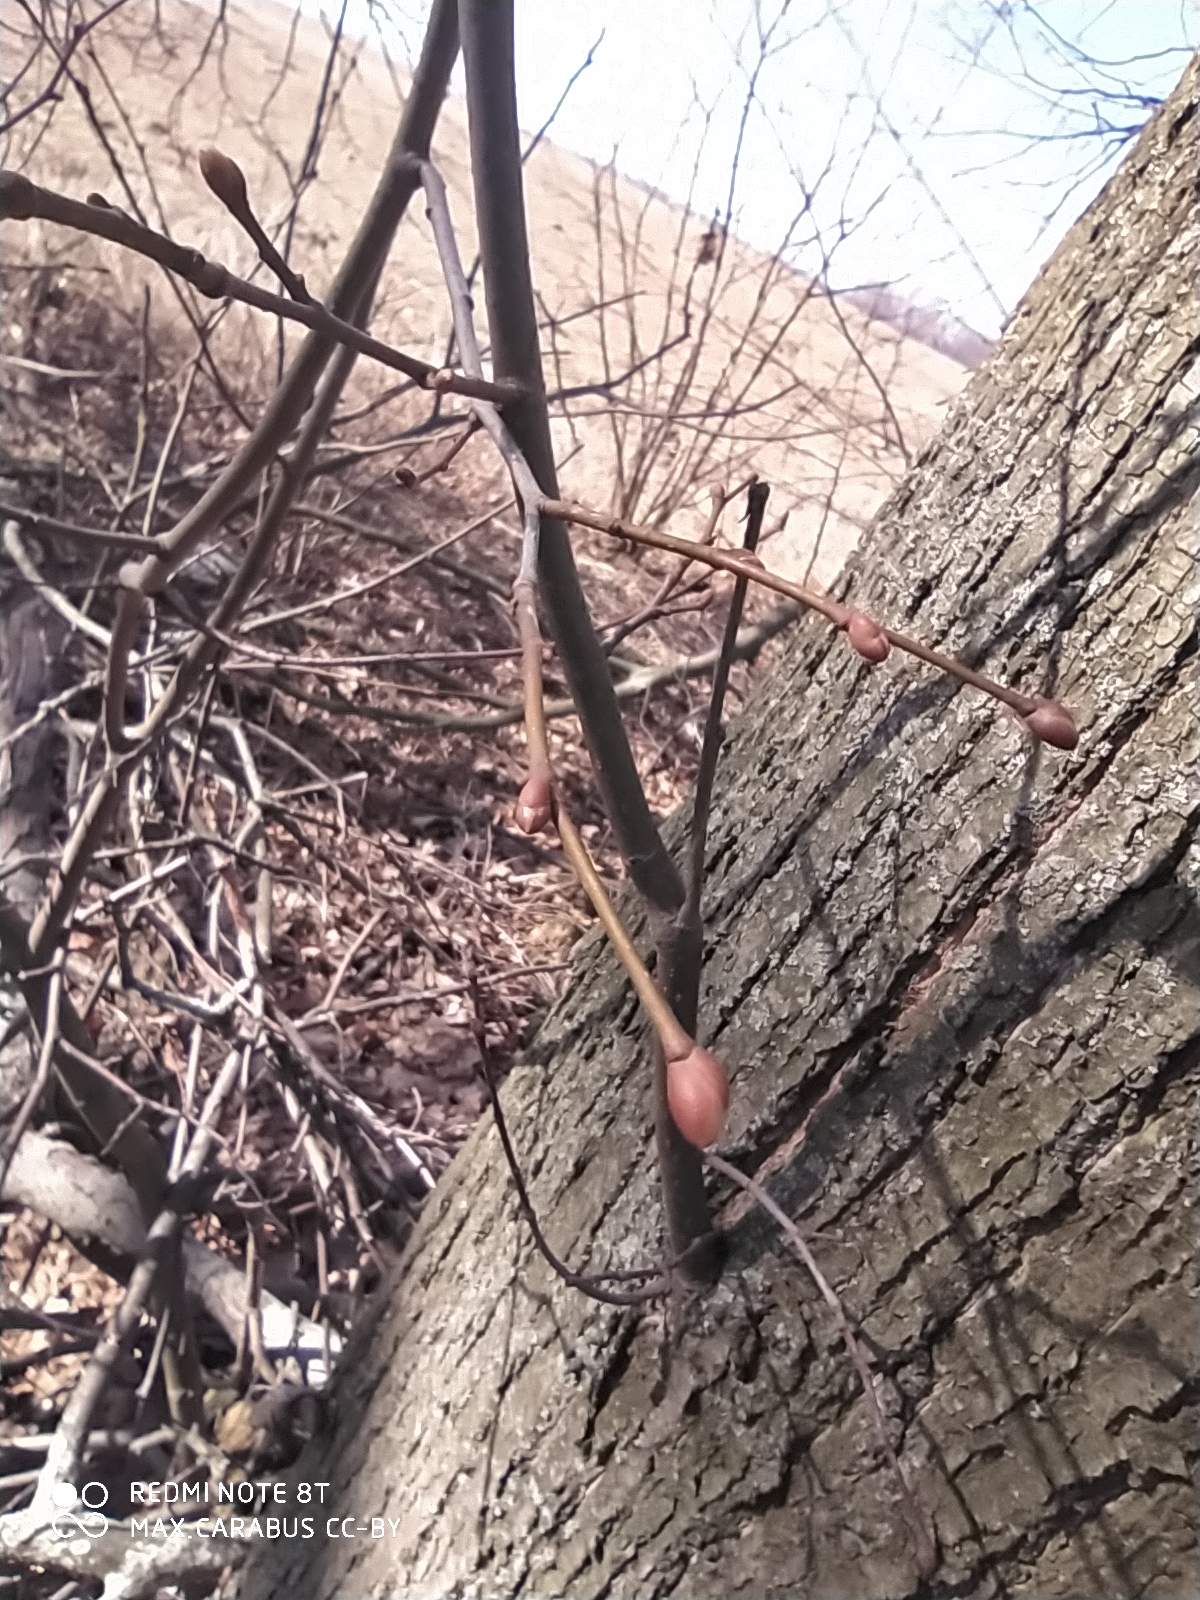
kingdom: Plantae
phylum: Tracheophyta
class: Magnoliopsida
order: Malvales
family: Malvaceae
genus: Tilia
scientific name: Tilia cordata
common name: Small-leaved lime
